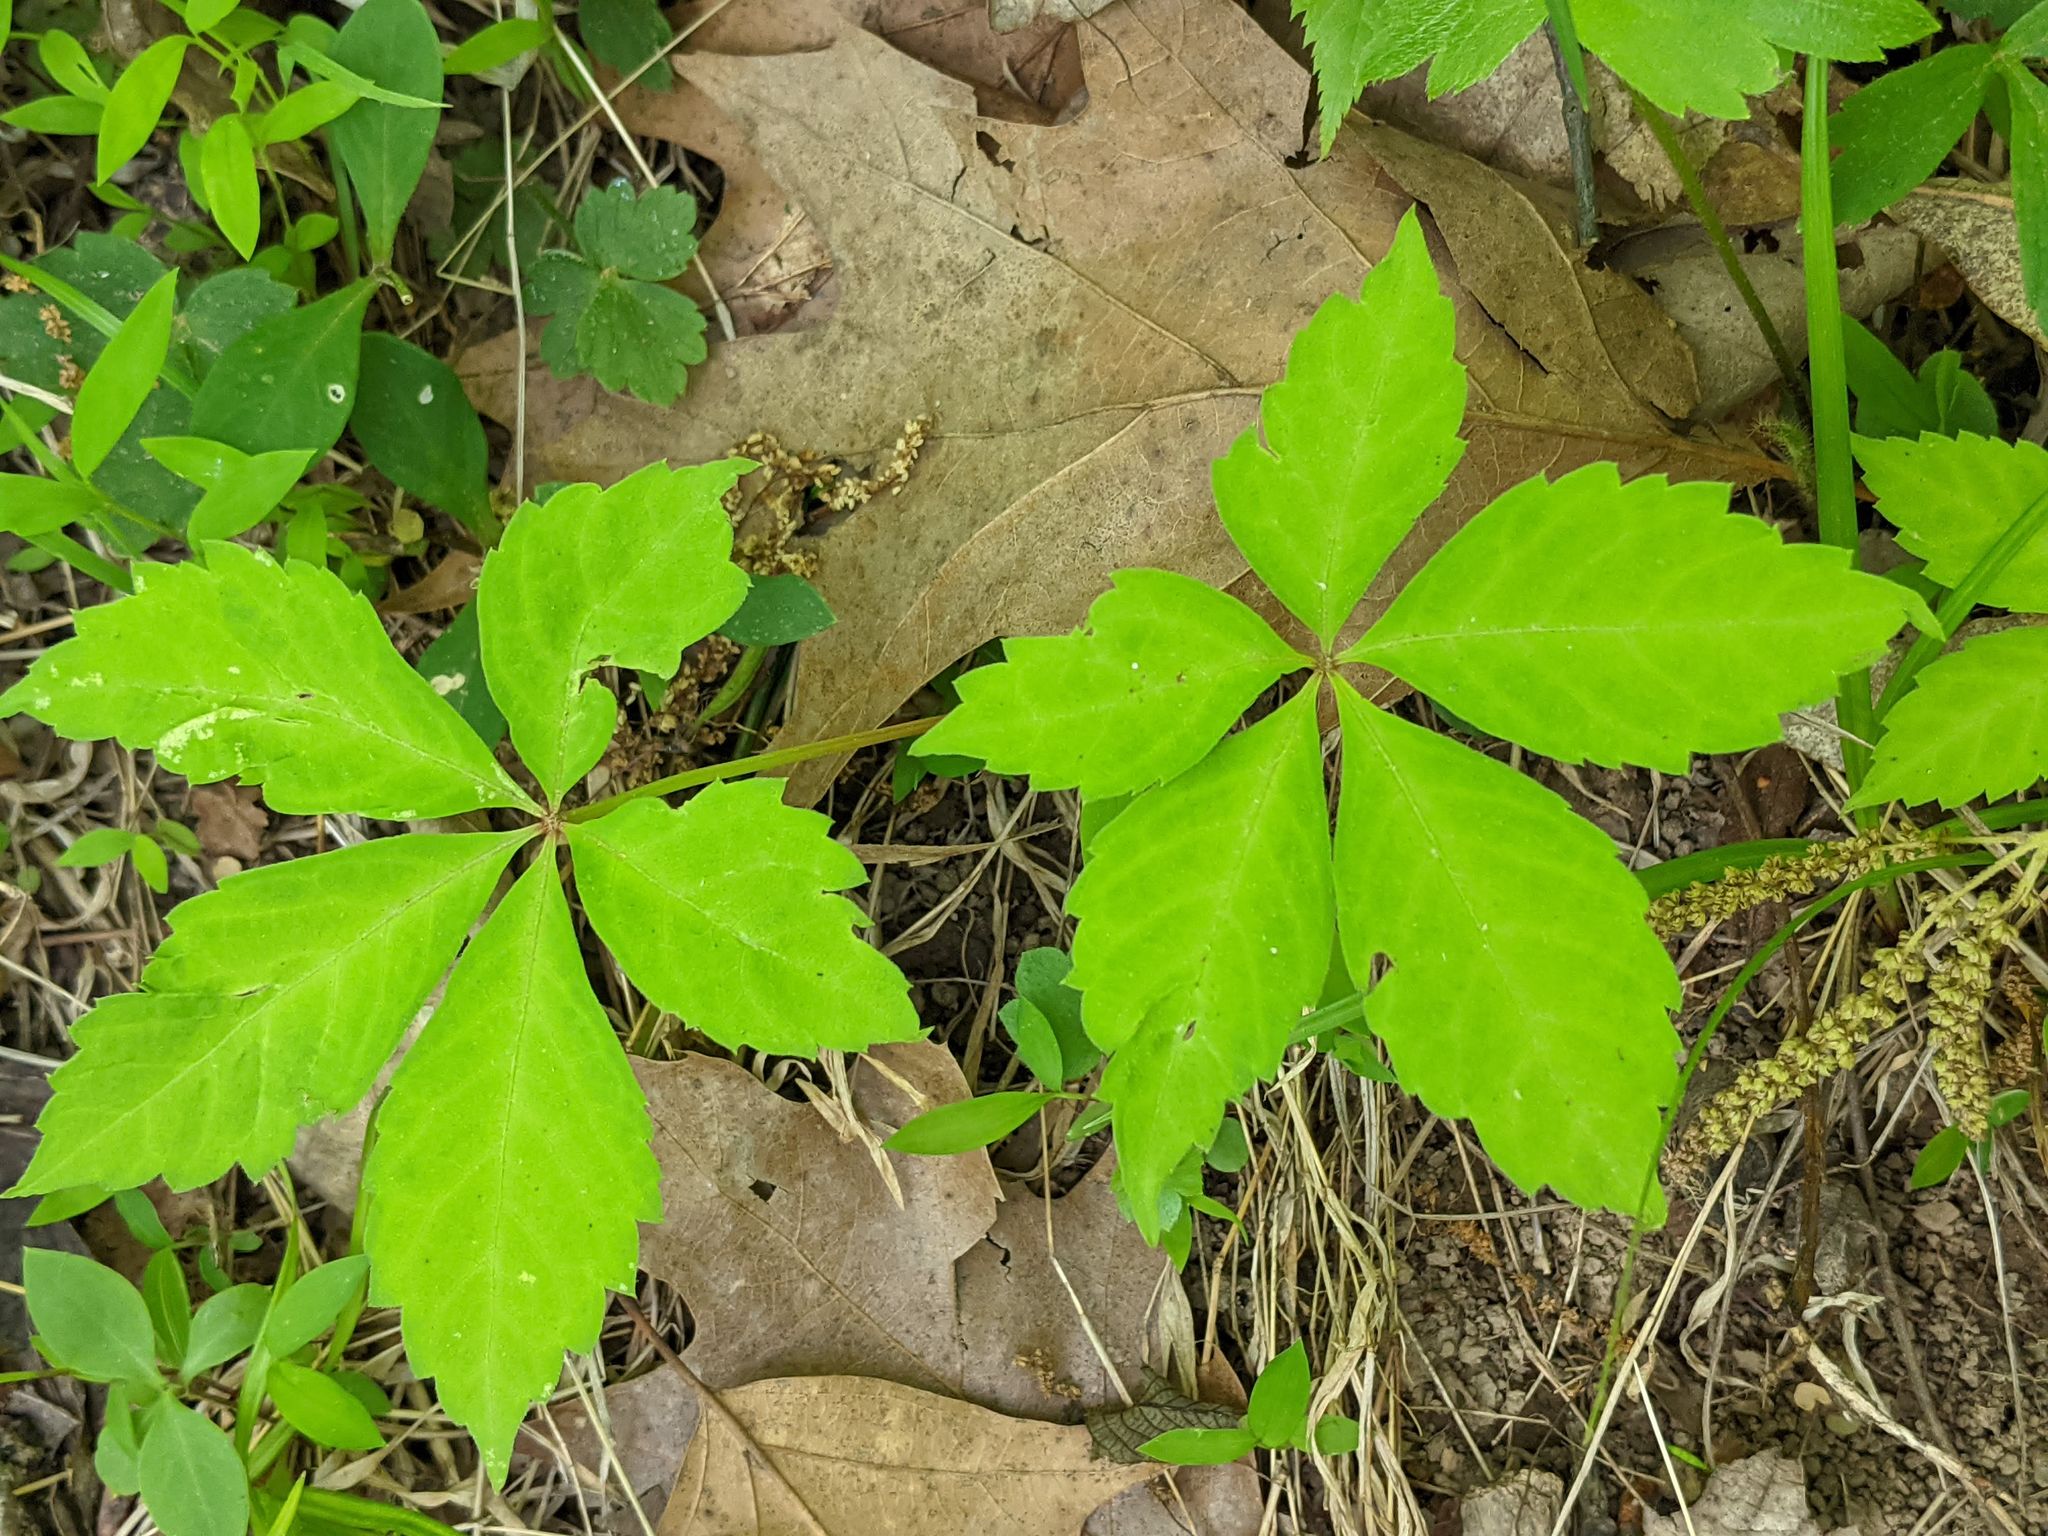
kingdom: Plantae
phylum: Tracheophyta
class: Magnoliopsida
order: Vitales
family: Vitaceae
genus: Parthenocissus
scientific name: Parthenocissus quinquefolia
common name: Virginia-creeper
